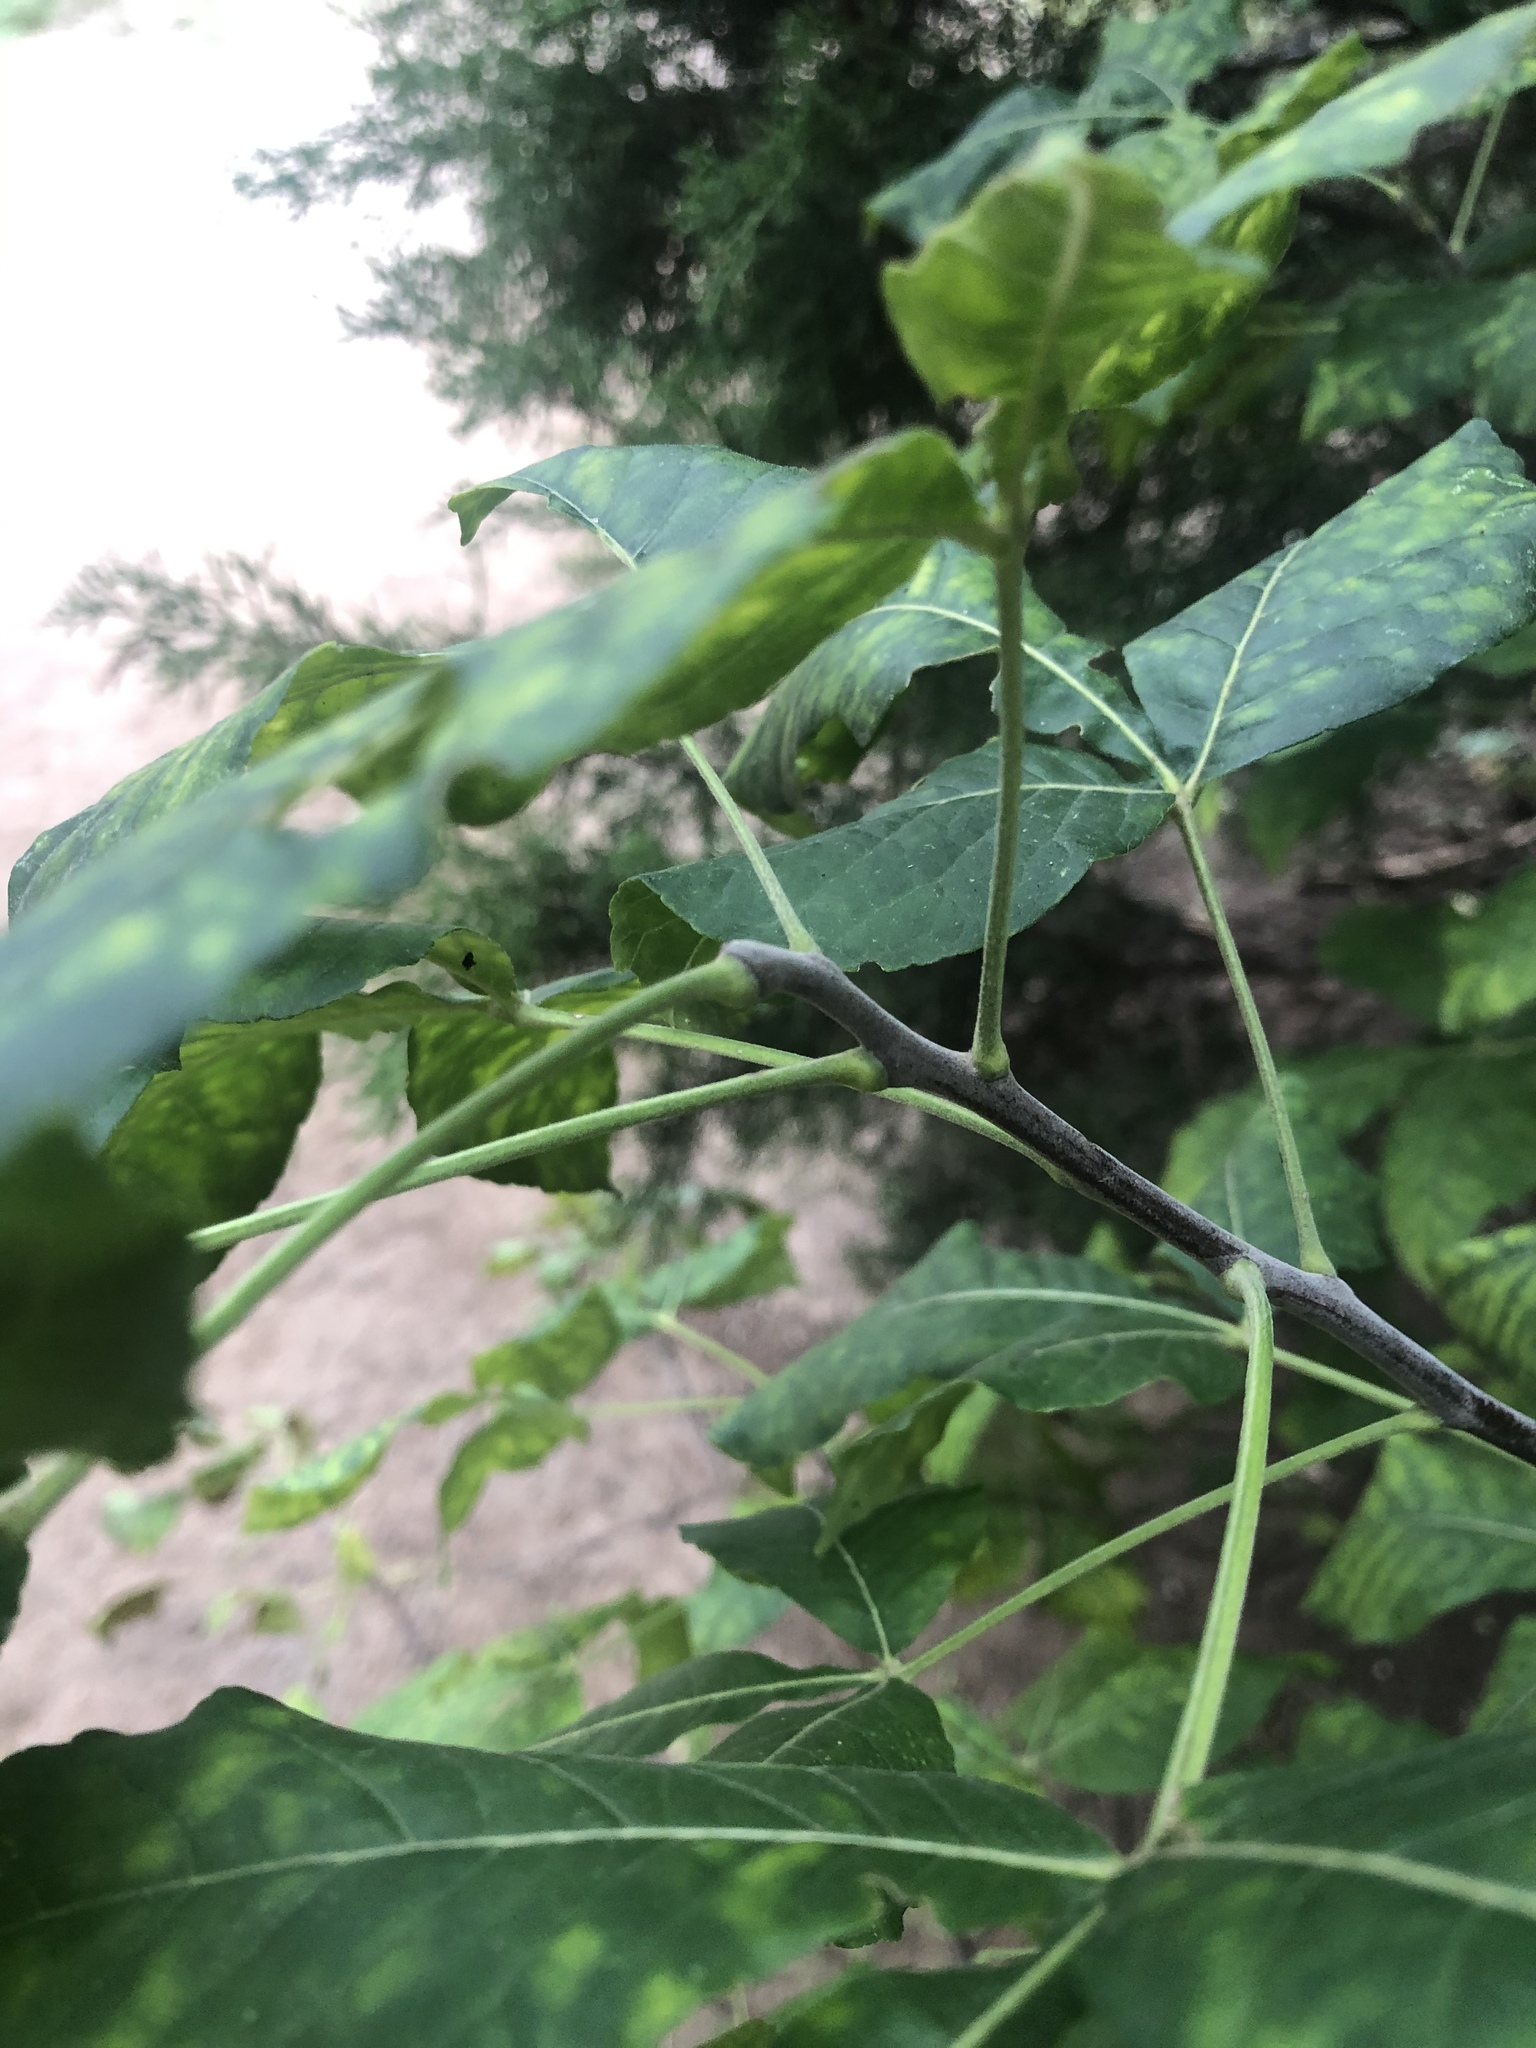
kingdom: Plantae
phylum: Tracheophyta
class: Magnoliopsida
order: Sapindales
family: Rutaceae
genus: Ptelea
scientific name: Ptelea trifoliata
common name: Common hop-tree
